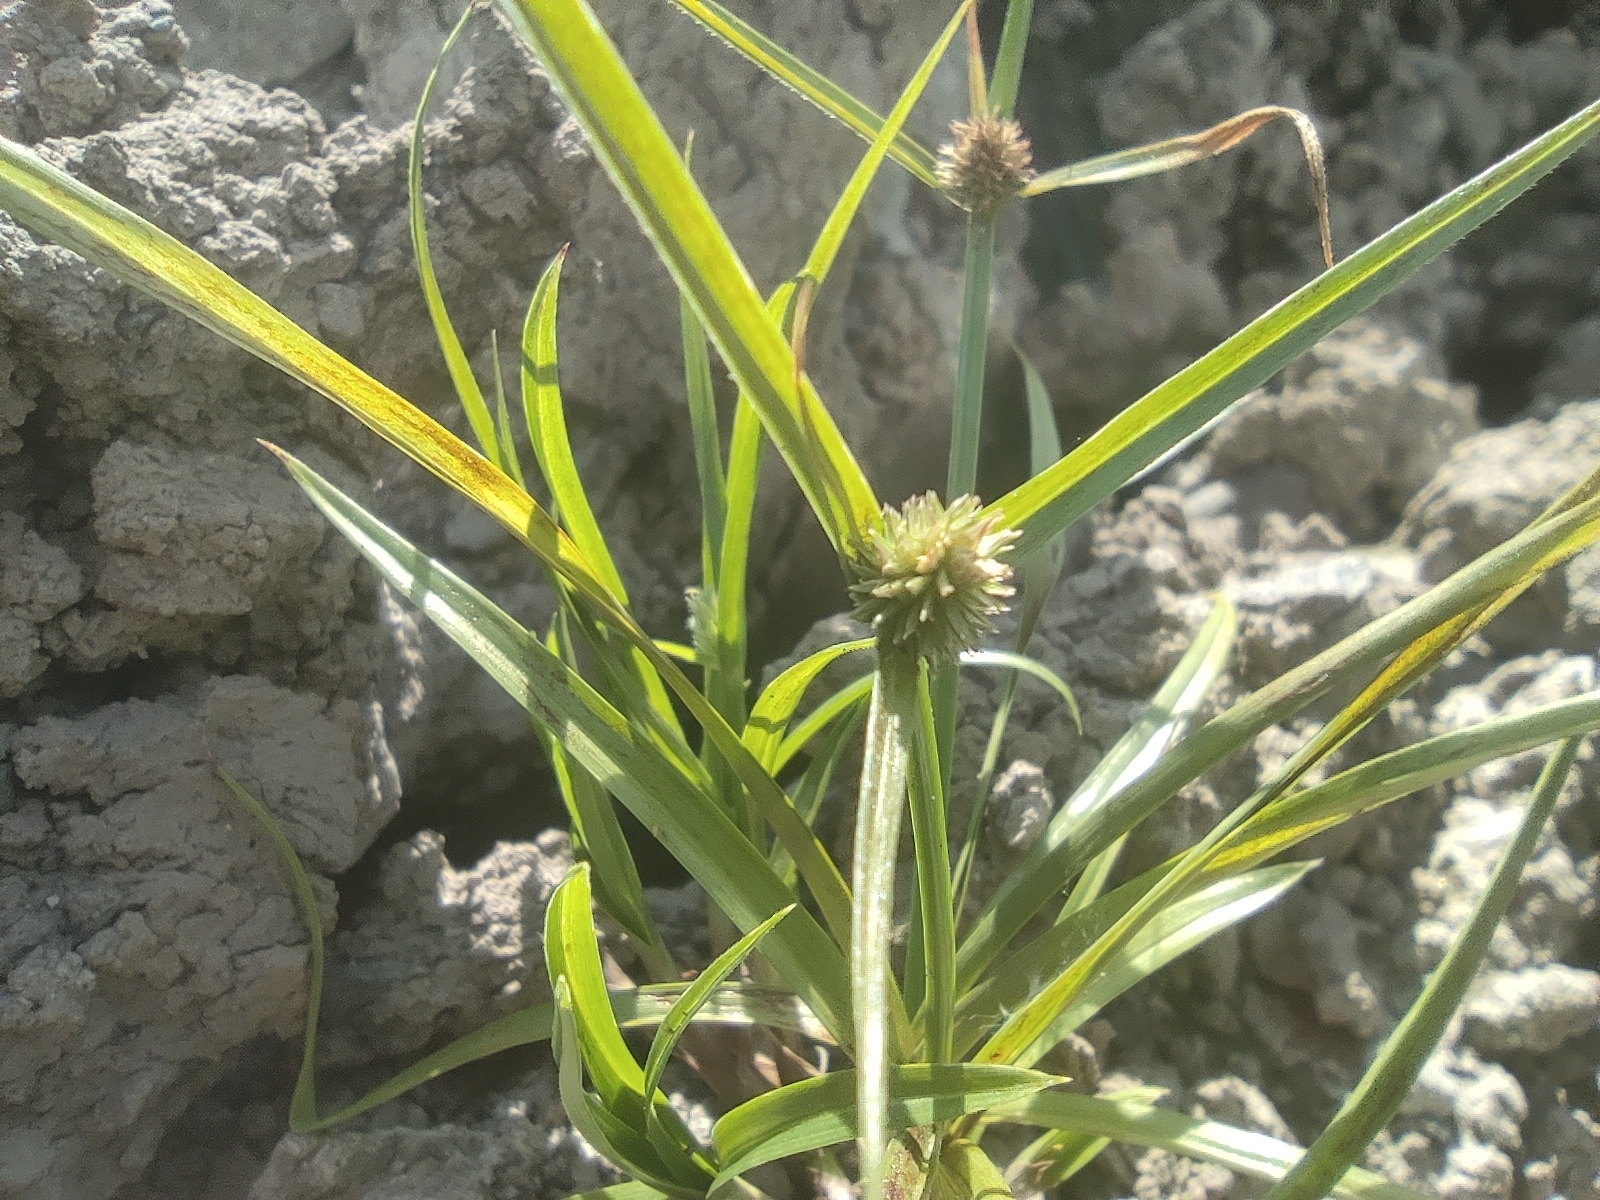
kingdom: Plantae
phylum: Tracheophyta
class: Liliopsida
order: Poales
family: Cyperaceae
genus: Cyperus
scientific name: Cyperus brevifolius
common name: Globe kyllinga
